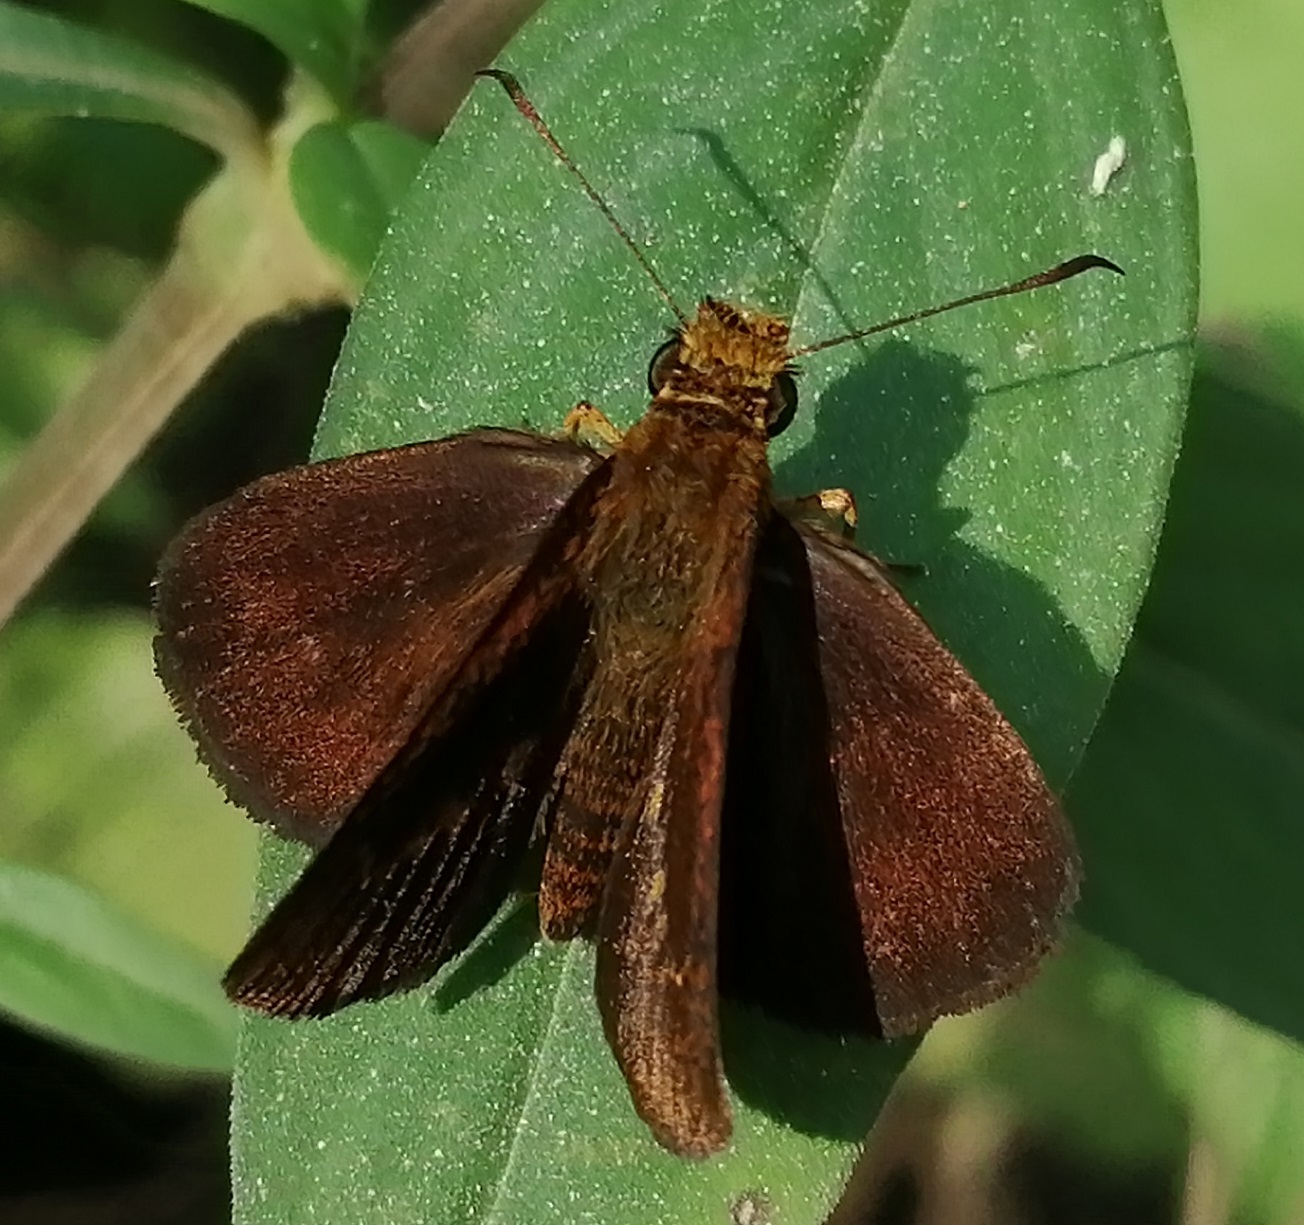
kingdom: Animalia
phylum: Arthropoda
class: Insecta
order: Lepidoptera
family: Hesperiidae
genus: Iambrix
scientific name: Iambrix salsala
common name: Chestnut bob
